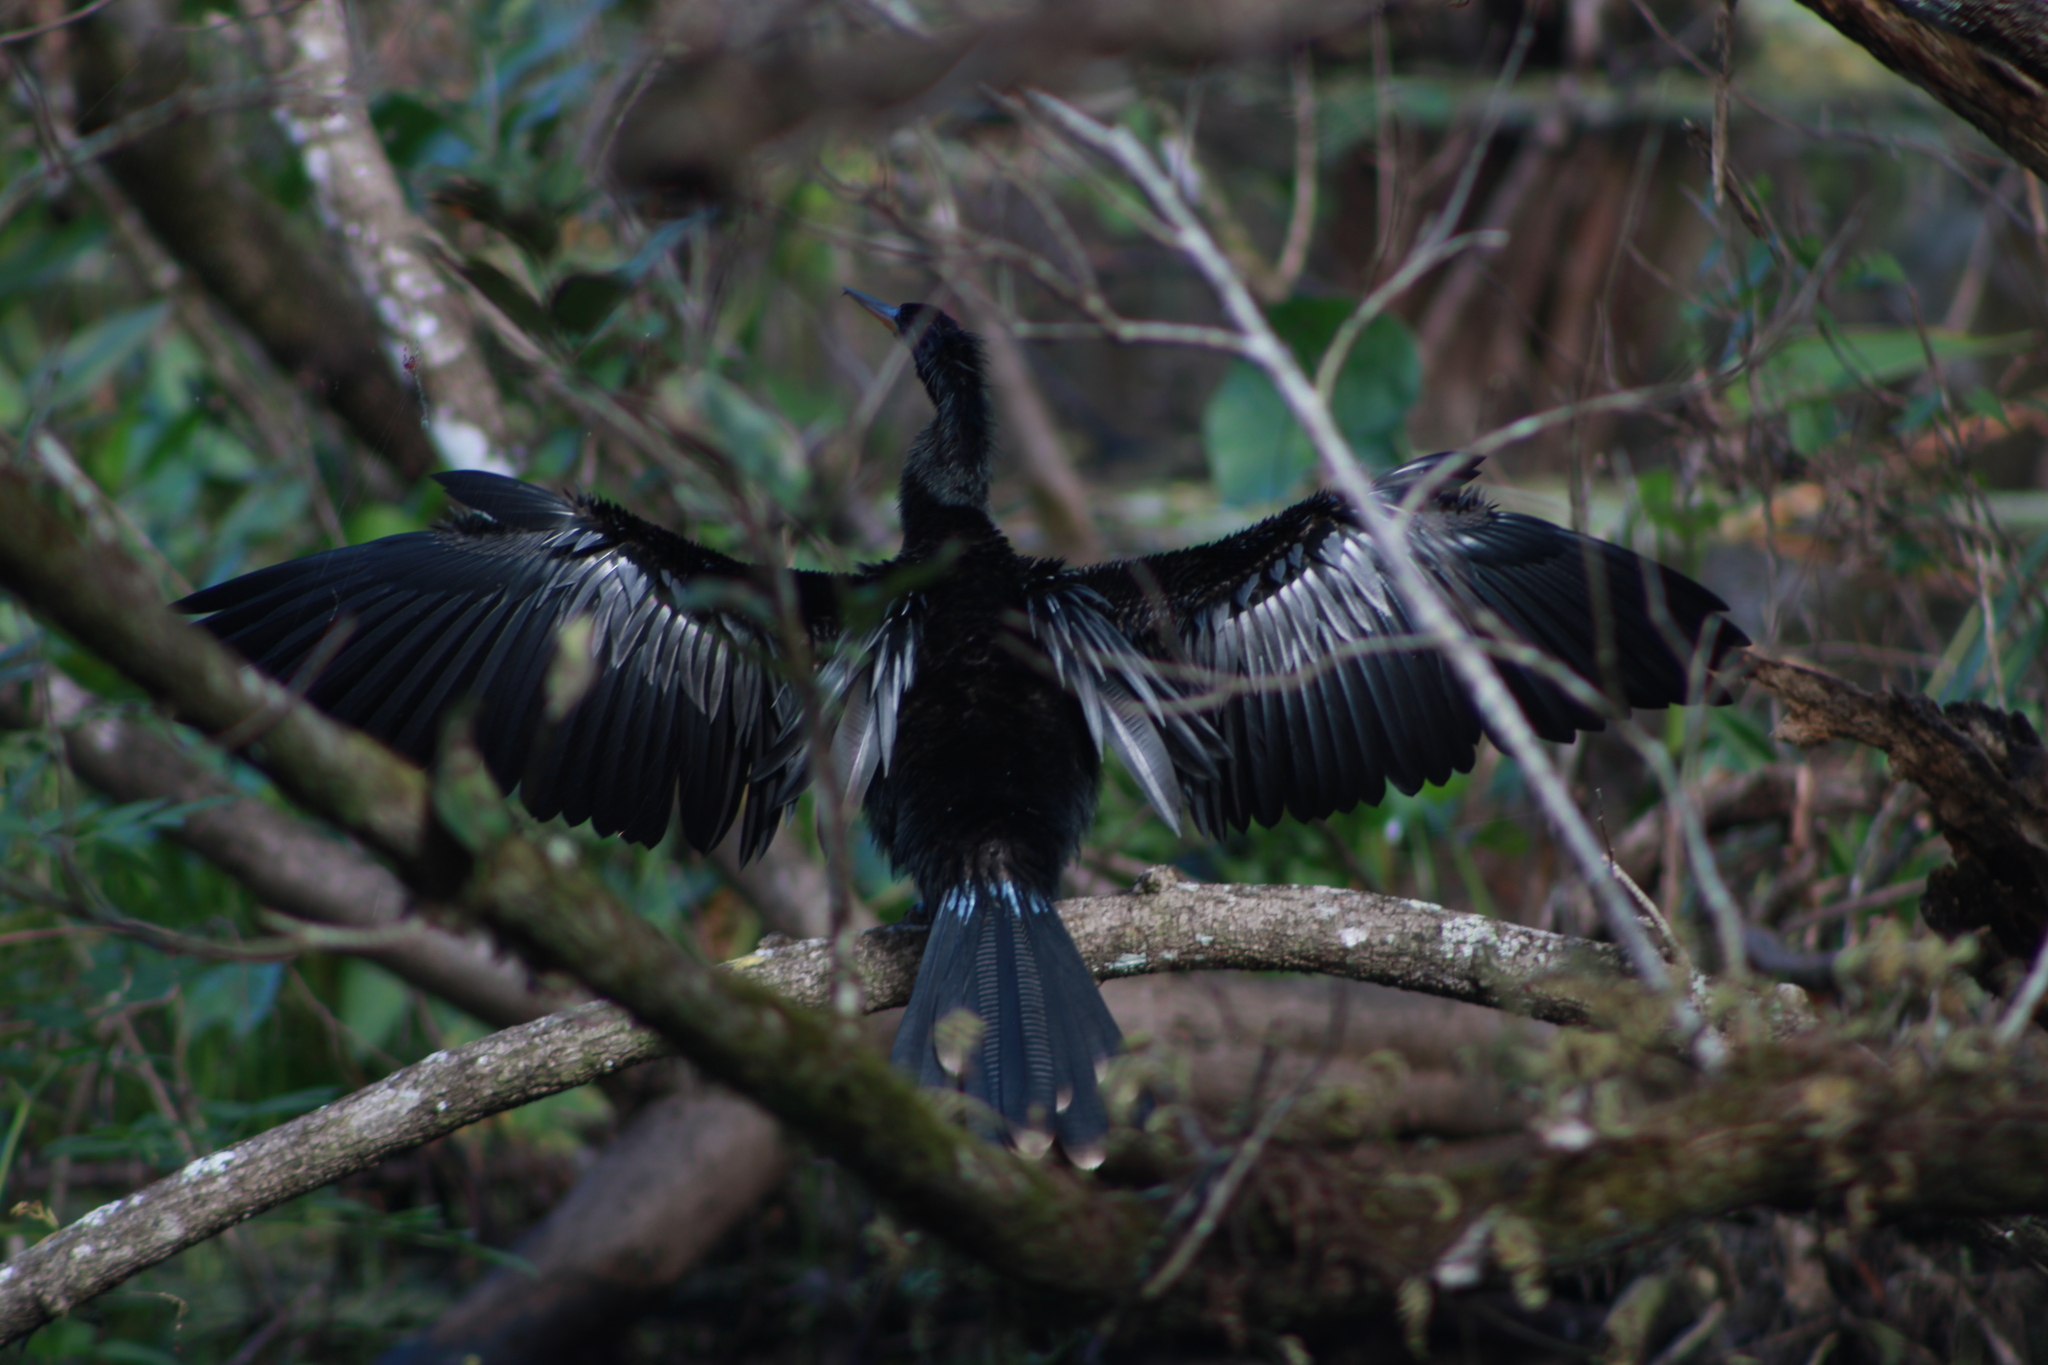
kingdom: Animalia
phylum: Chordata
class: Aves
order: Suliformes
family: Anhingidae
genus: Anhinga
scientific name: Anhinga anhinga
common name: Anhinga
